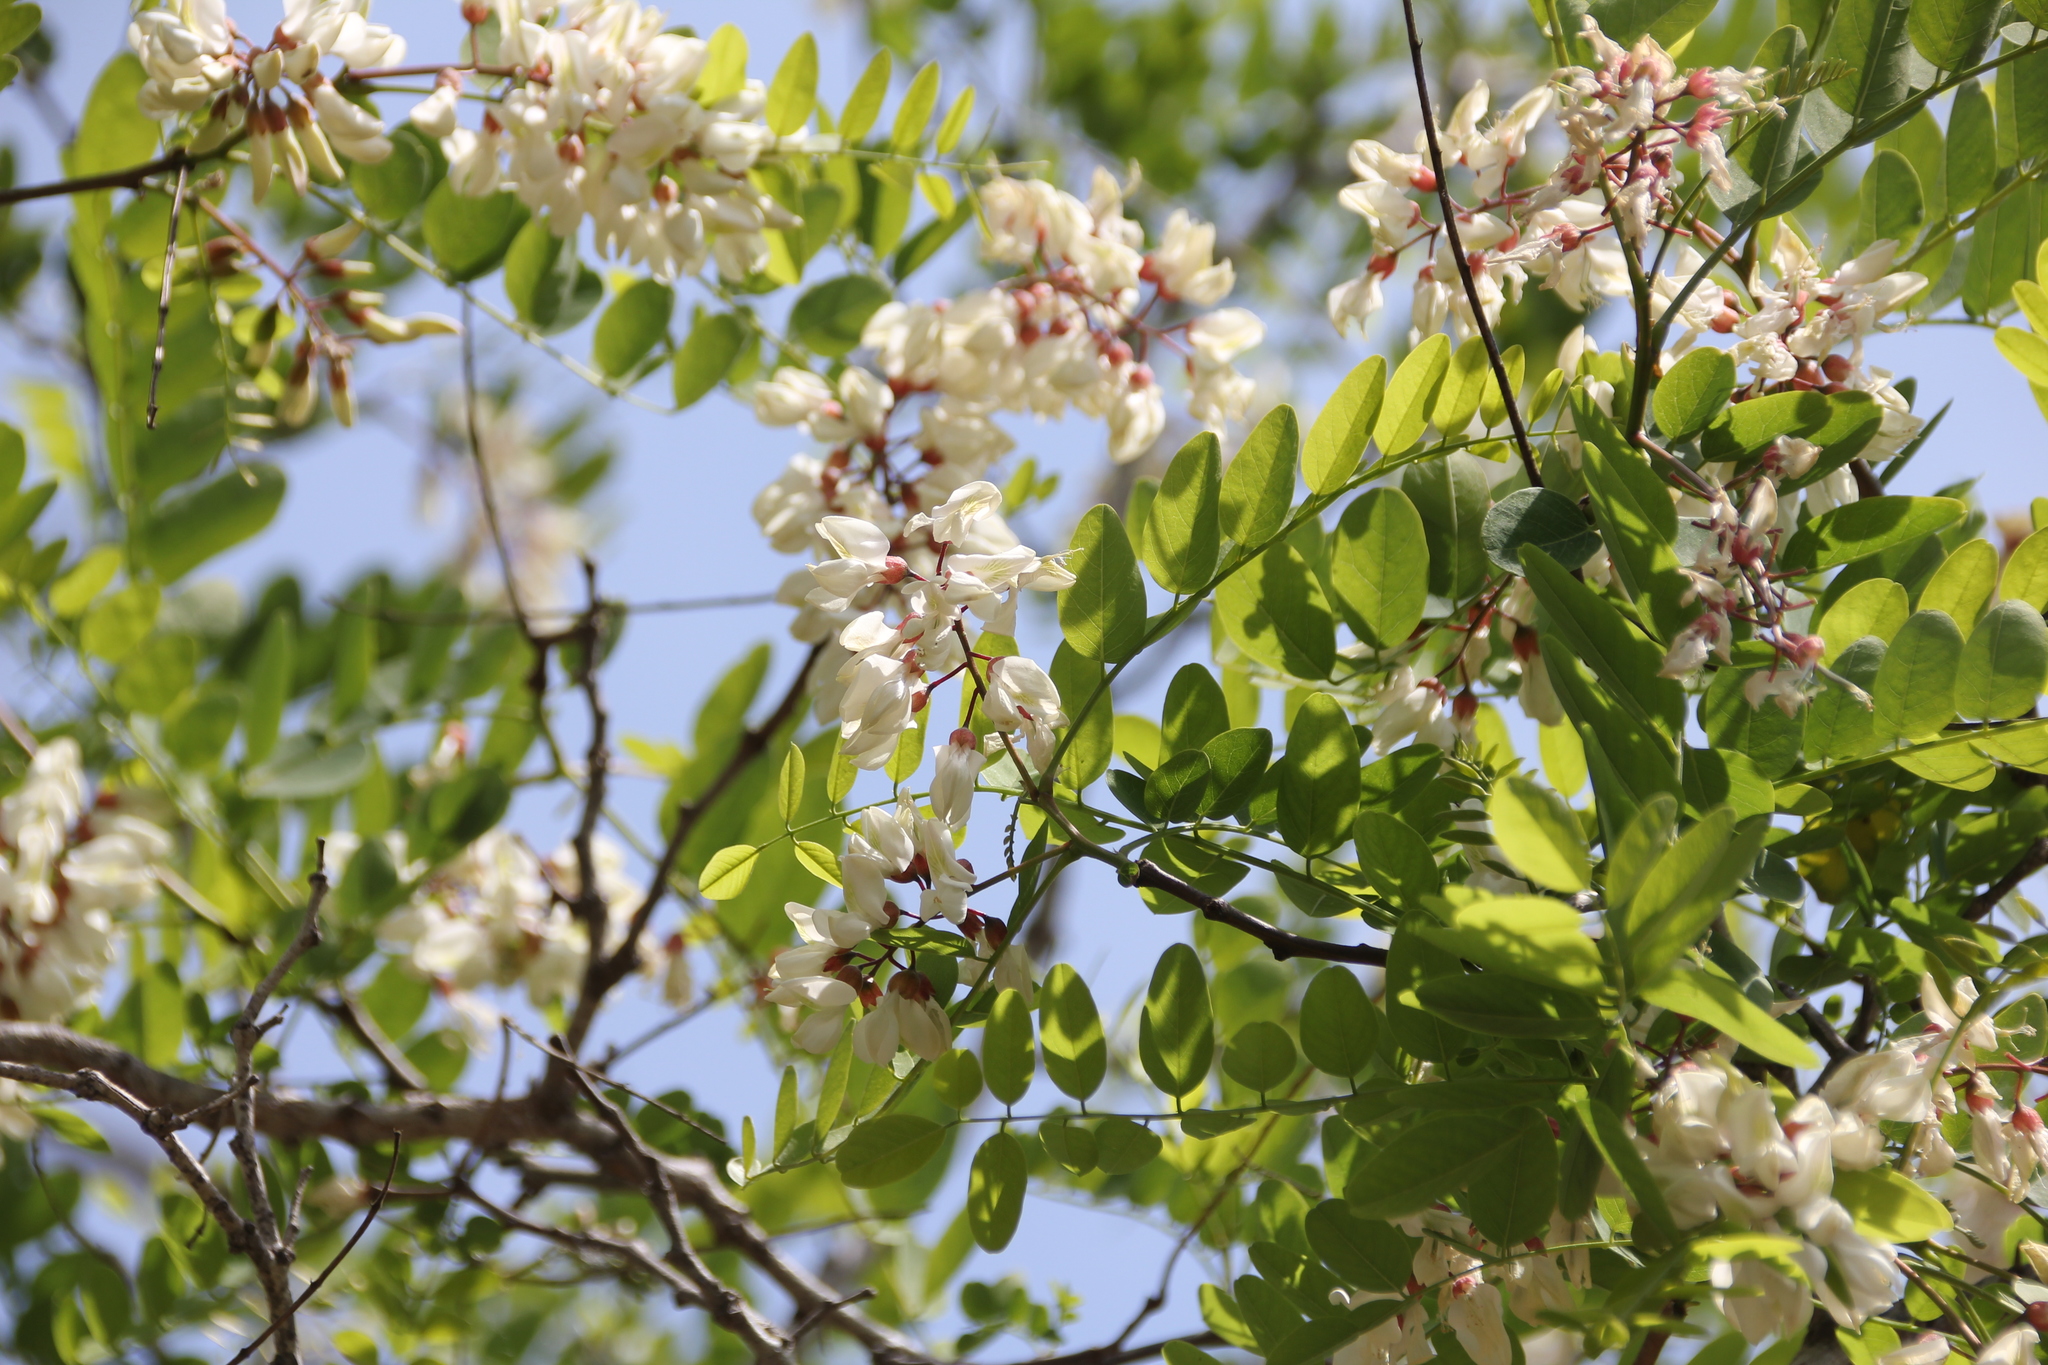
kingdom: Plantae
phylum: Tracheophyta
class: Magnoliopsida
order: Fabales
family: Fabaceae
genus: Robinia
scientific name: Robinia pseudoacacia
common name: Black locust
